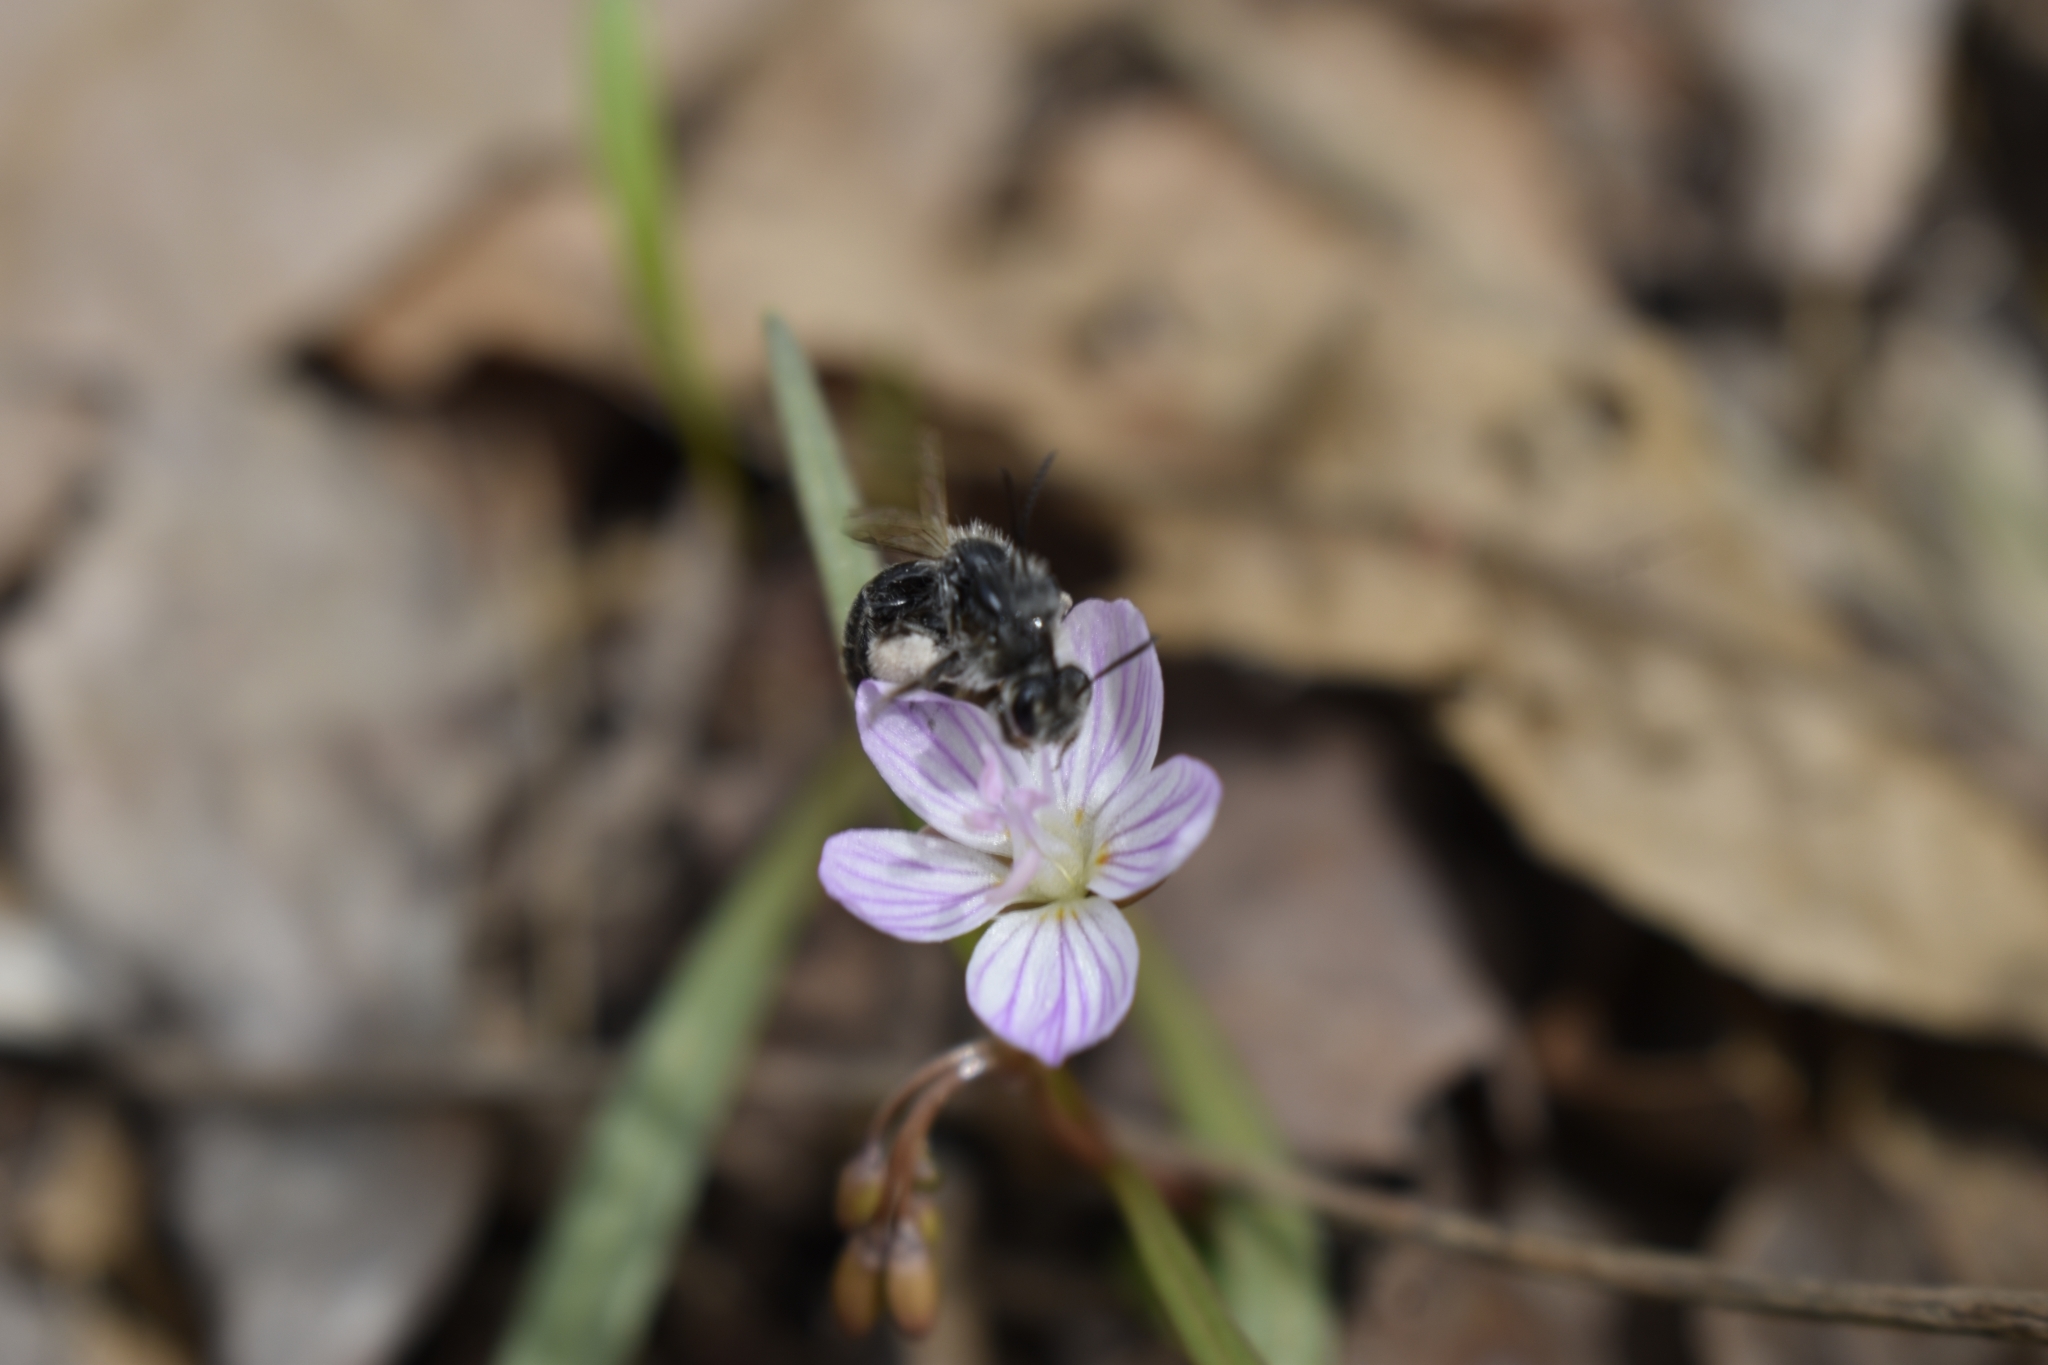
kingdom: Animalia
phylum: Arthropoda
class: Insecta
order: Hymenoptera
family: Andrenidae
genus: Andrena
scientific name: Andrena erigeniae
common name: Spring beauty miner
